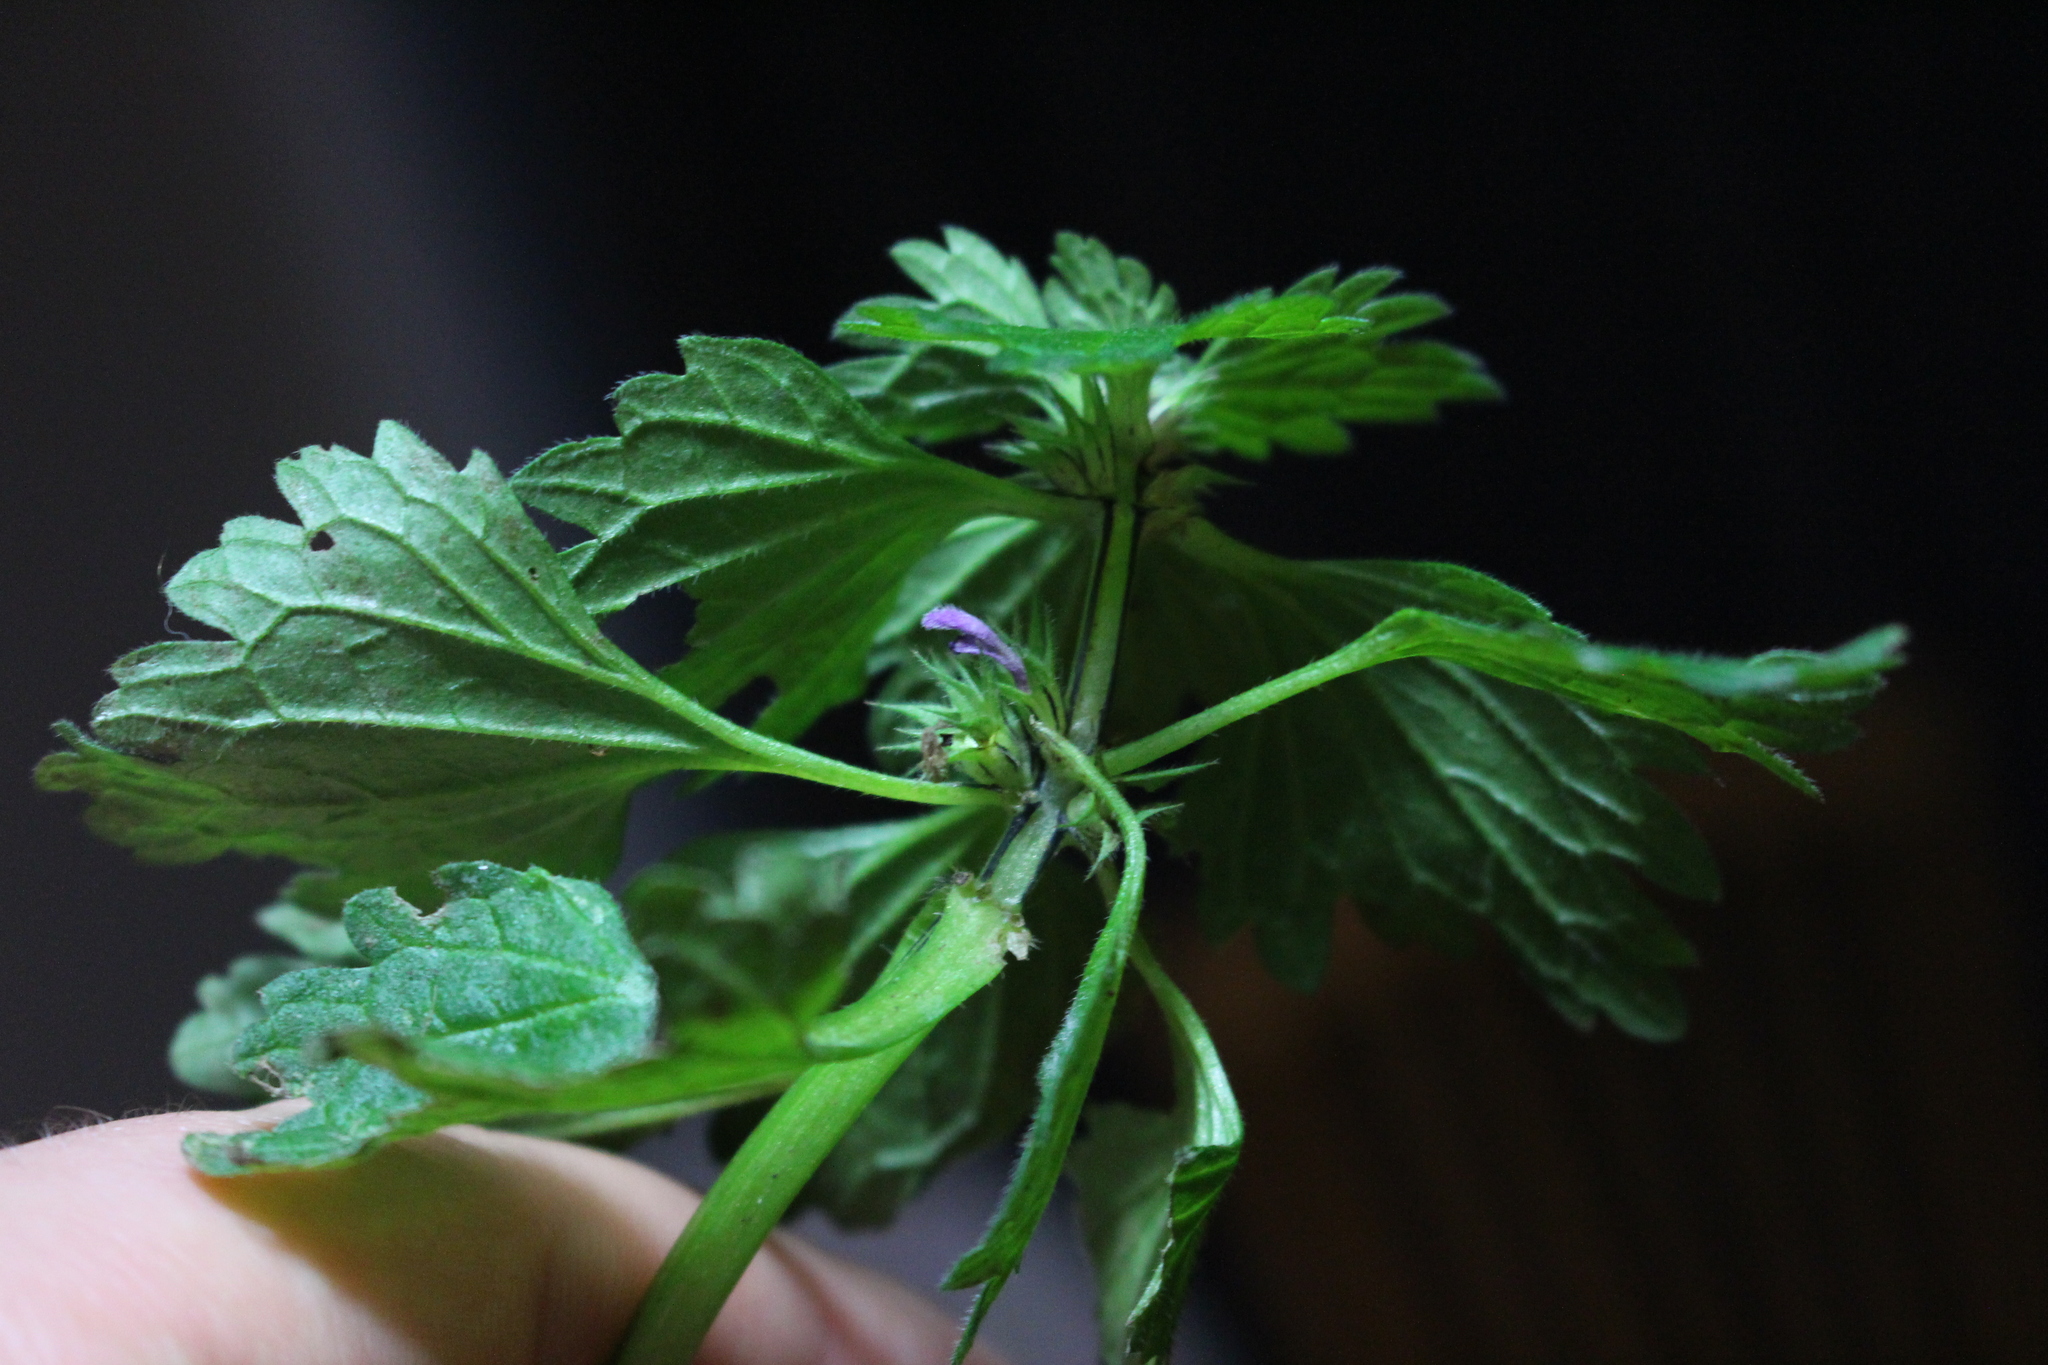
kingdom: Plantae
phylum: Tracheophyta
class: Magnoliopsida
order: Lamiales
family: Lamiaceae
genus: Lamium
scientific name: Lamium purpureum
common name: Red dead-nettle
